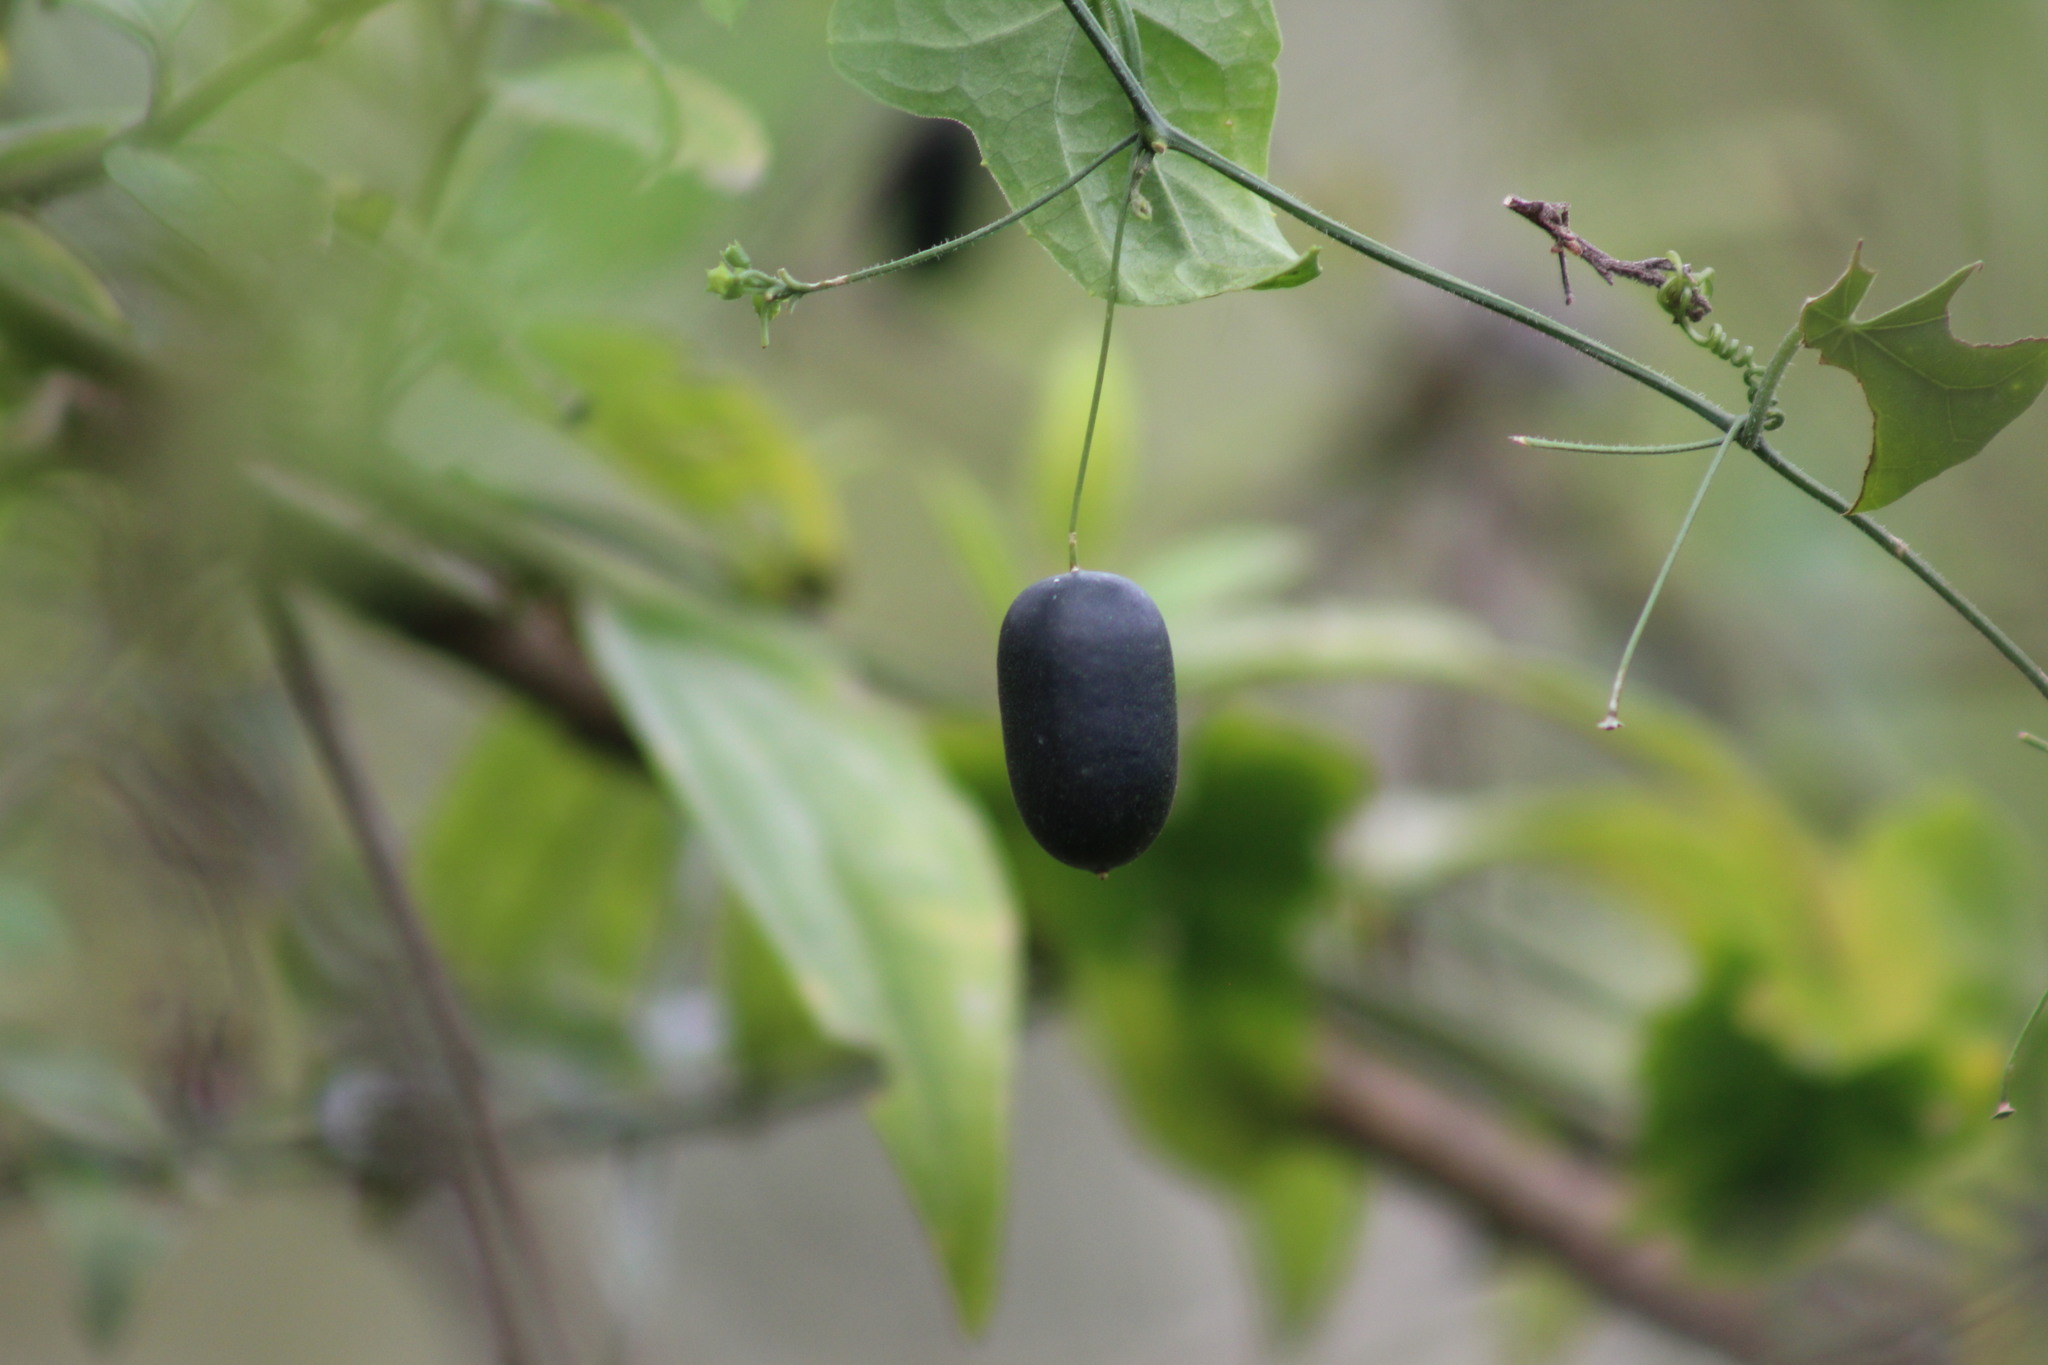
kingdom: Plantae
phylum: Tracheophyta
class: Magnoliopsida
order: Cucurbitales
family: Cucurbitaceae
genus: Melothria
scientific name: Melothria pendula
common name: Creeping-cucumber
